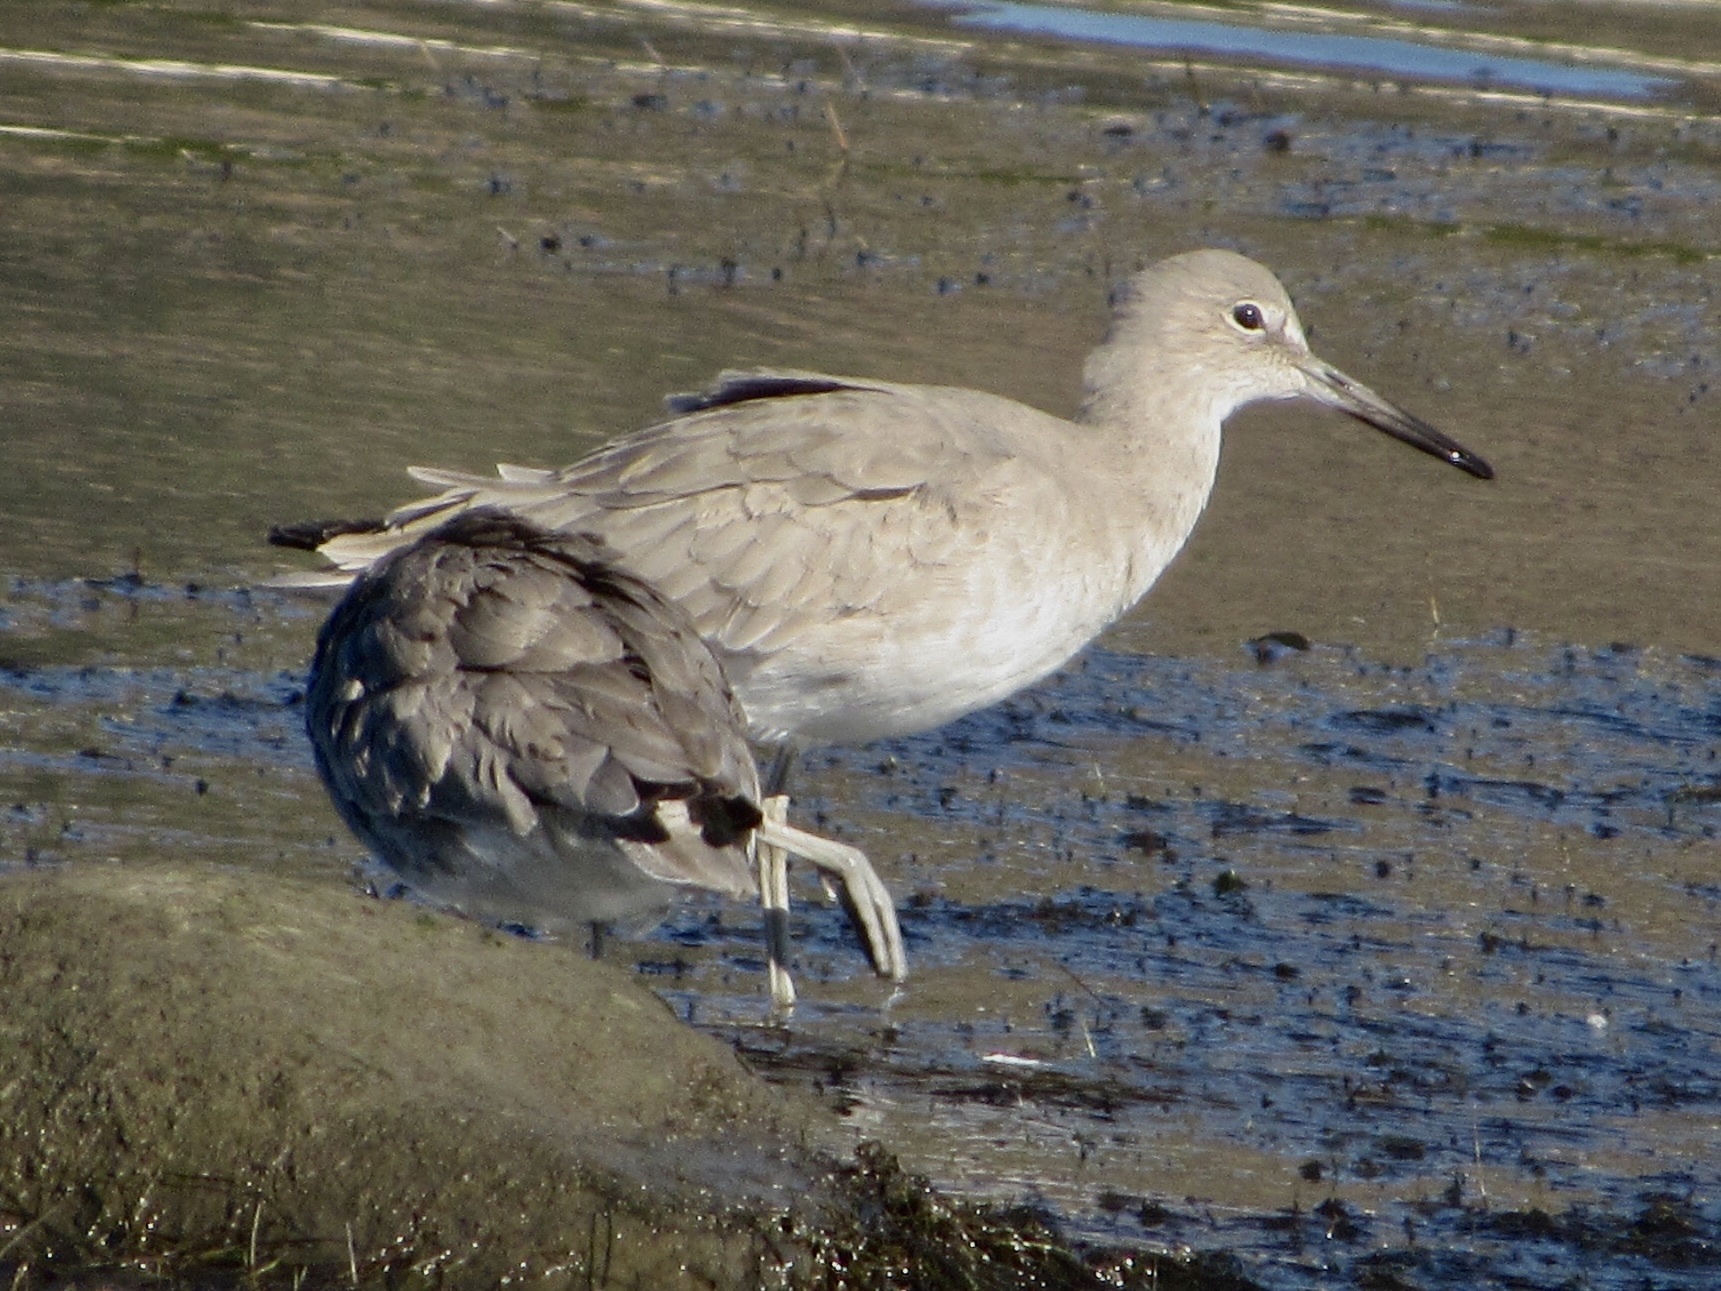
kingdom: Animalia
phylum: Chordata
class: Aves
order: Charadriiformes
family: Scolopacidae
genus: Tringa
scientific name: Tringa semipalmata
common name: Willet
